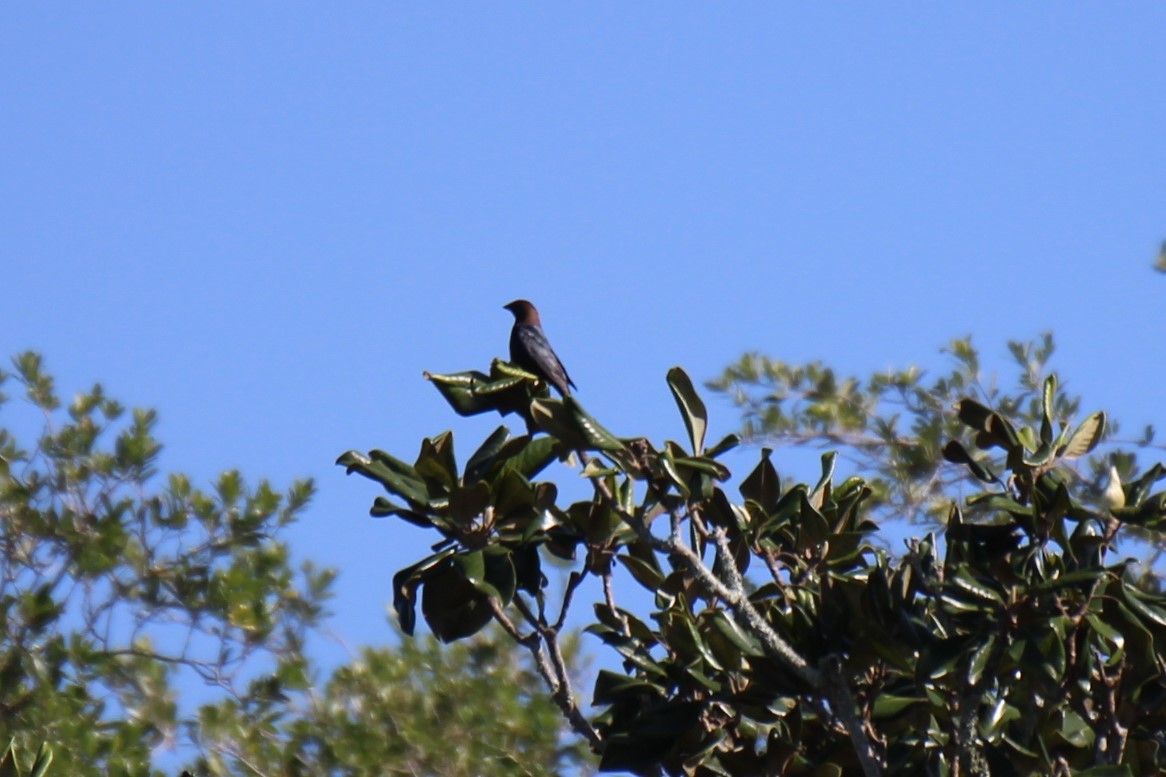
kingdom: Animalia
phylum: Chordata
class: Aves
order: Passeriformes
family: Icteridae
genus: Molothrus
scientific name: Molothrus ater
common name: Brown-headed cowbird
